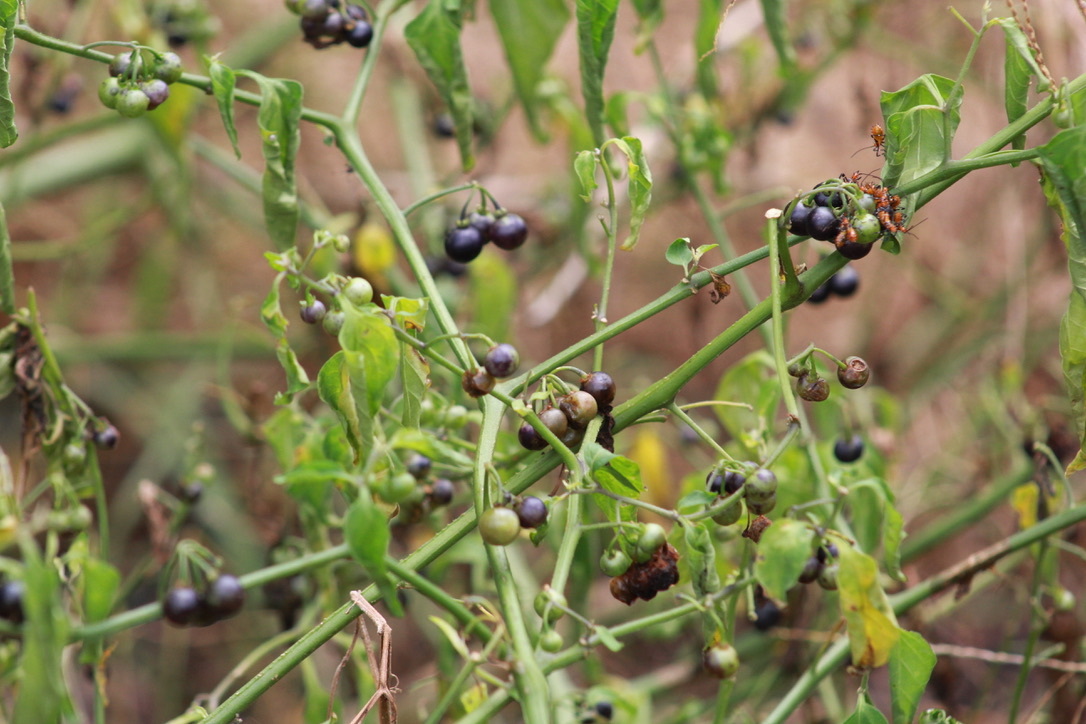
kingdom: Plantae
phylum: Tracheophyta
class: Magnoliopsida
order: Solanales
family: Solanaceae
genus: Solanum
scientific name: Solanum americanum
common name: American black nightshade
